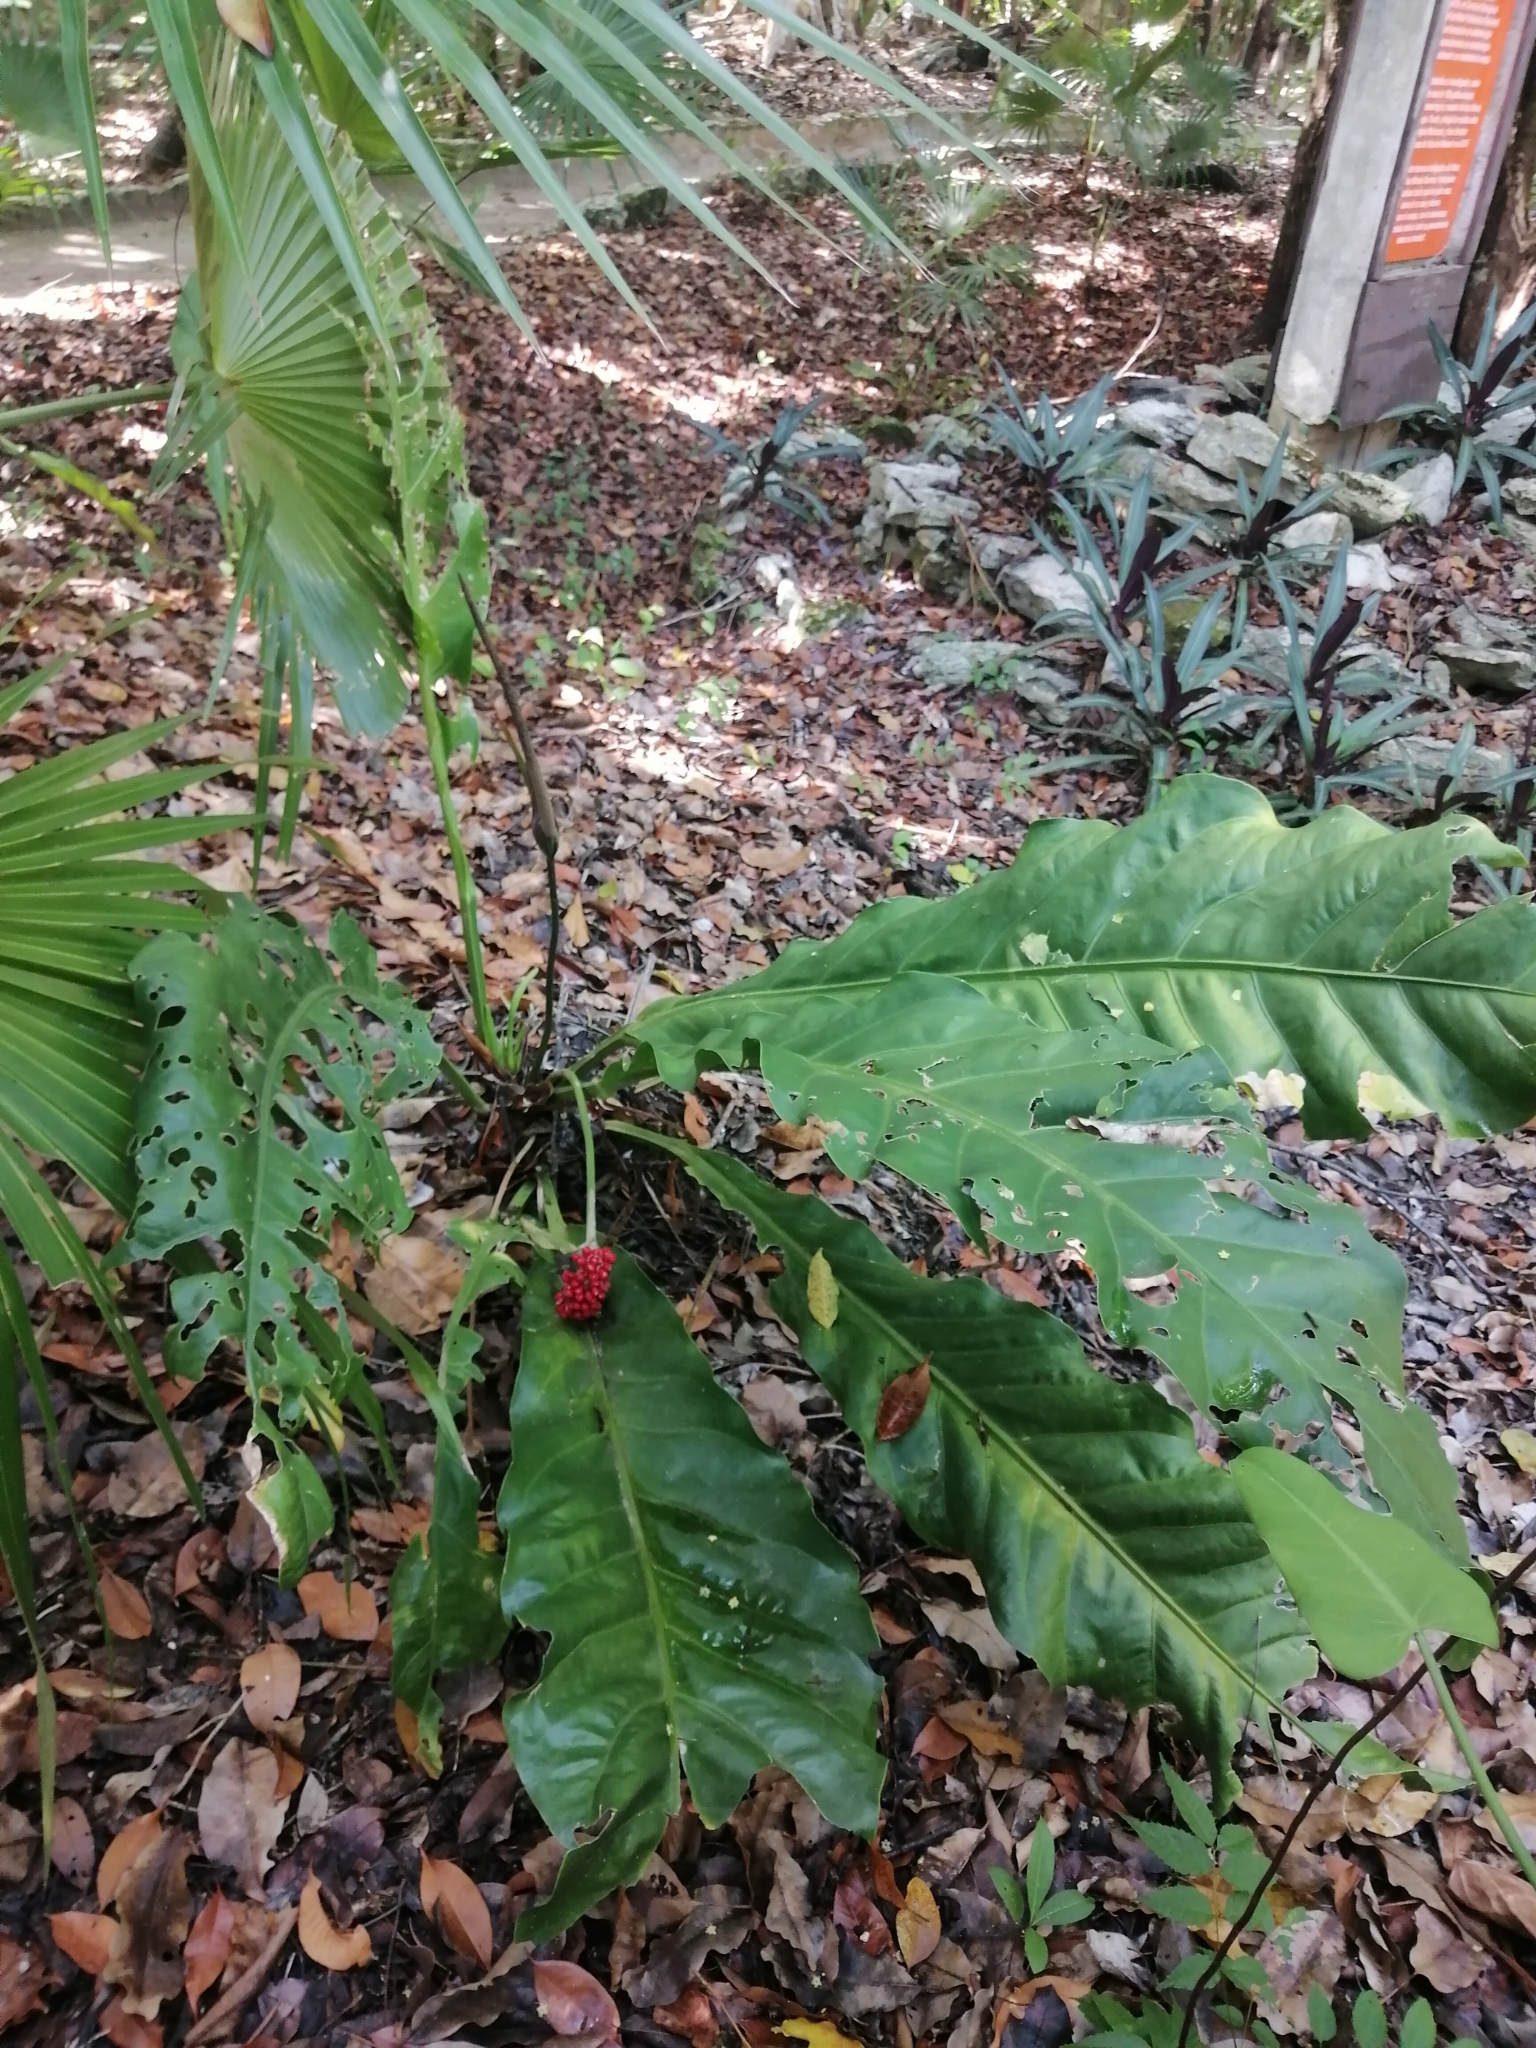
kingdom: Plantae
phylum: Tracheophyta
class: Liliopsida
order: Alismatales
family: Araceae
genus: Anthurium
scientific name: Anthurium schlechtendalii
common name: Laceleaf
